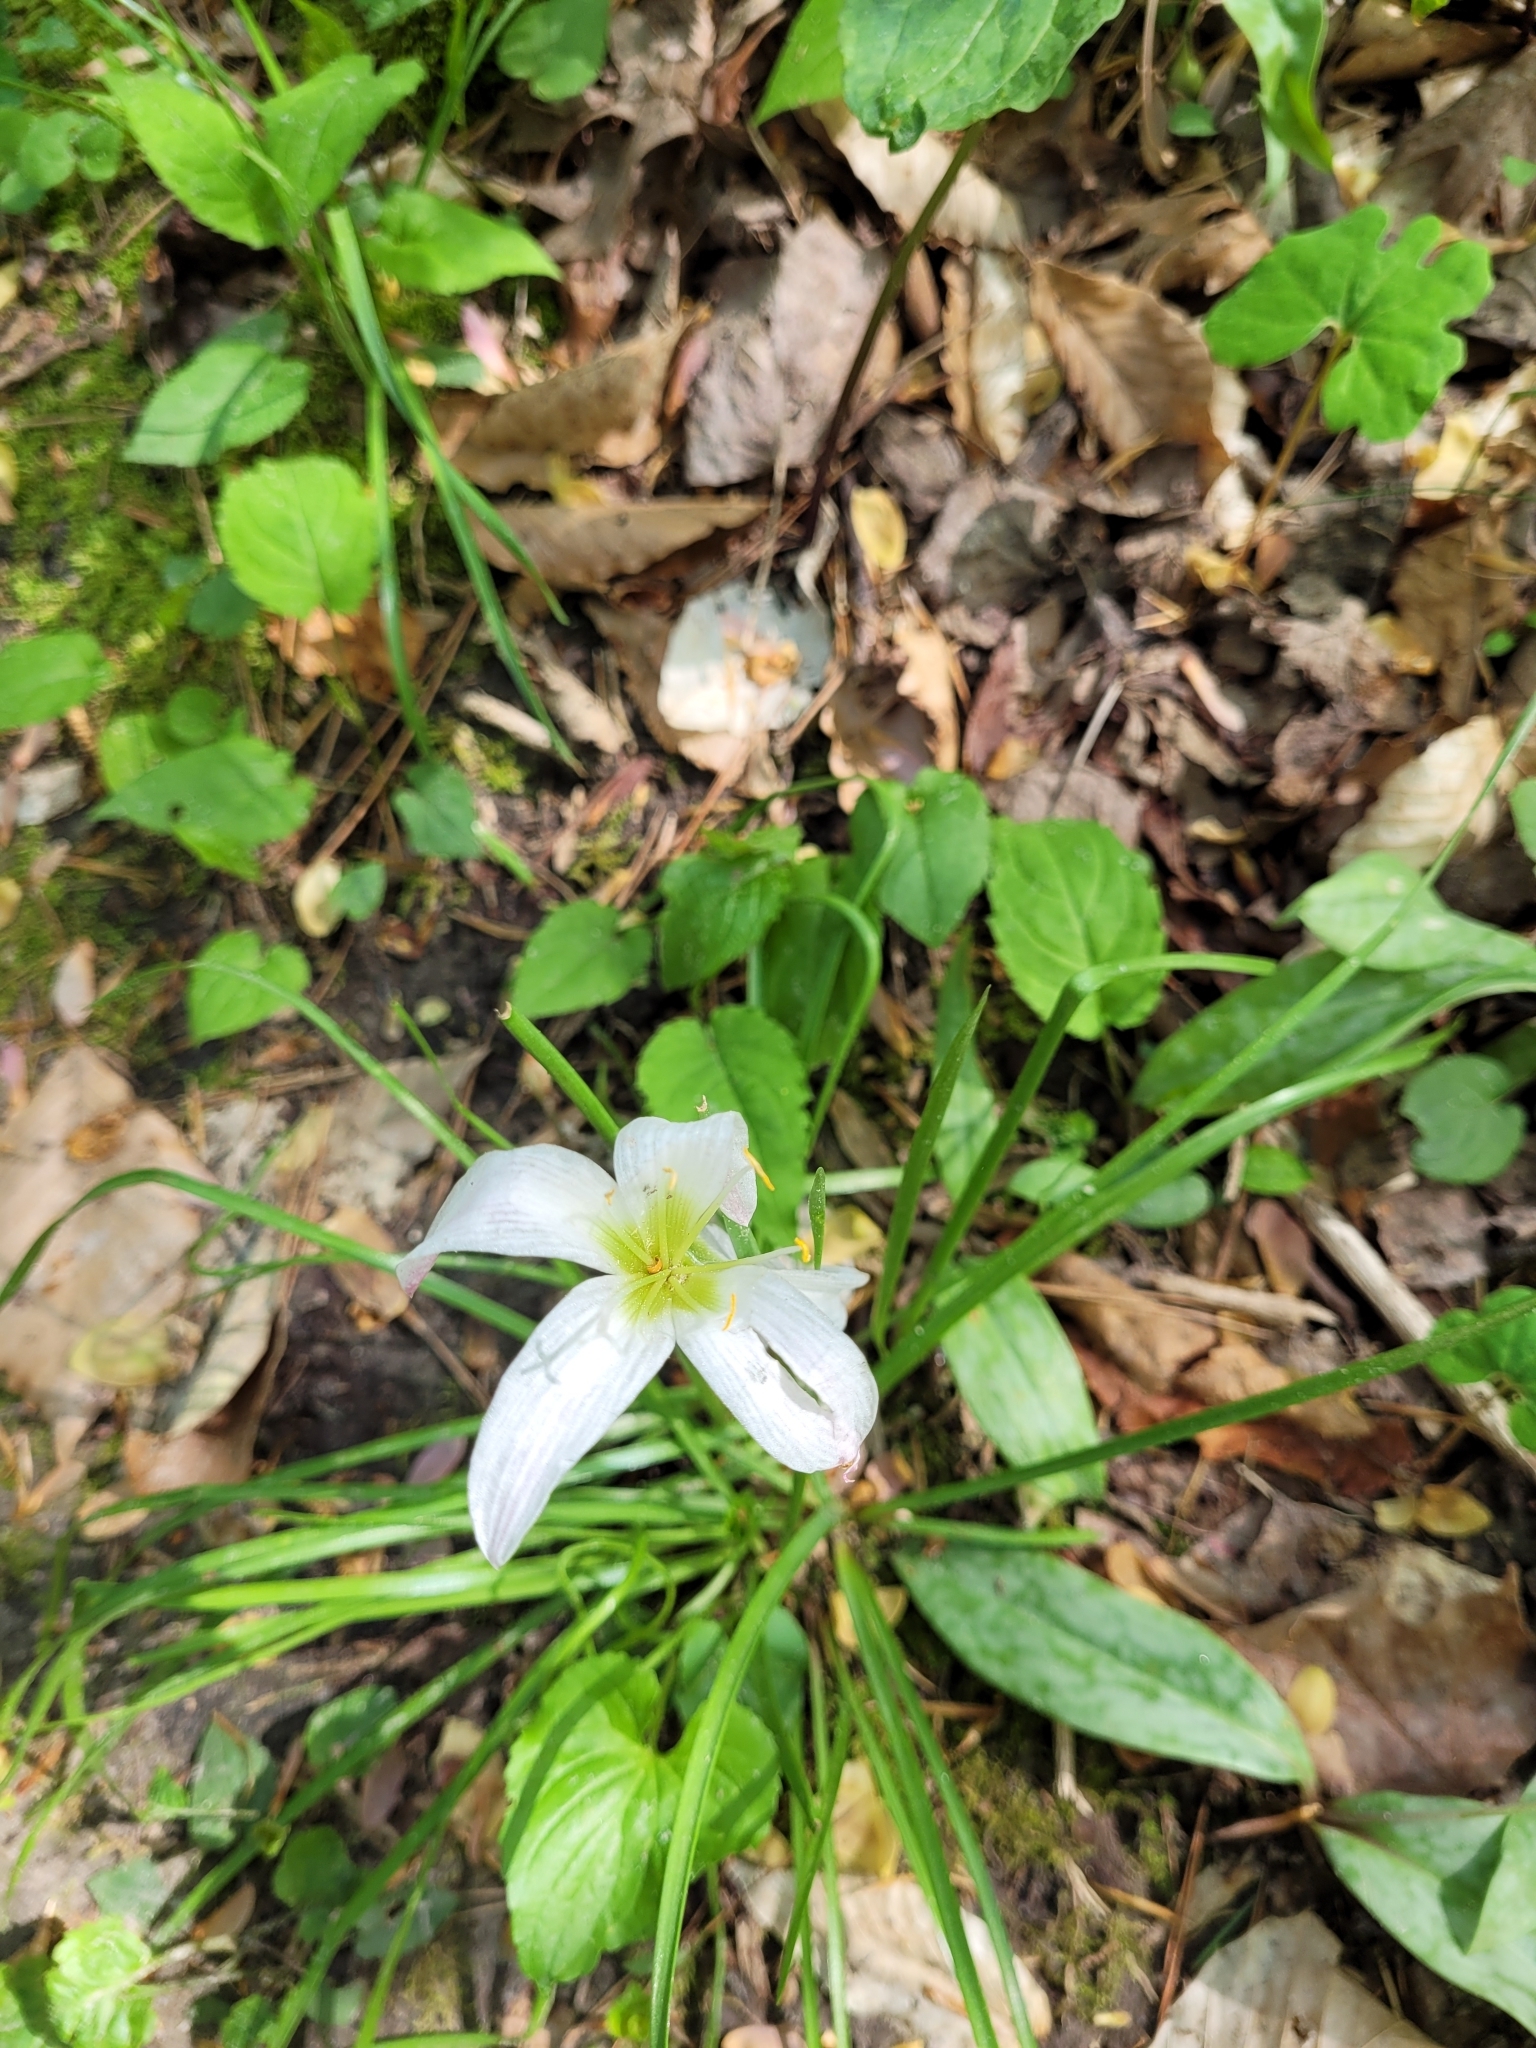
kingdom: Plantae
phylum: Tracheophyta
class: Liliopsida
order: Asparagales
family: Amaryllidaceae
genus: Zephyranthes
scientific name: Zephyranthes atamasco
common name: Atamasco lily
